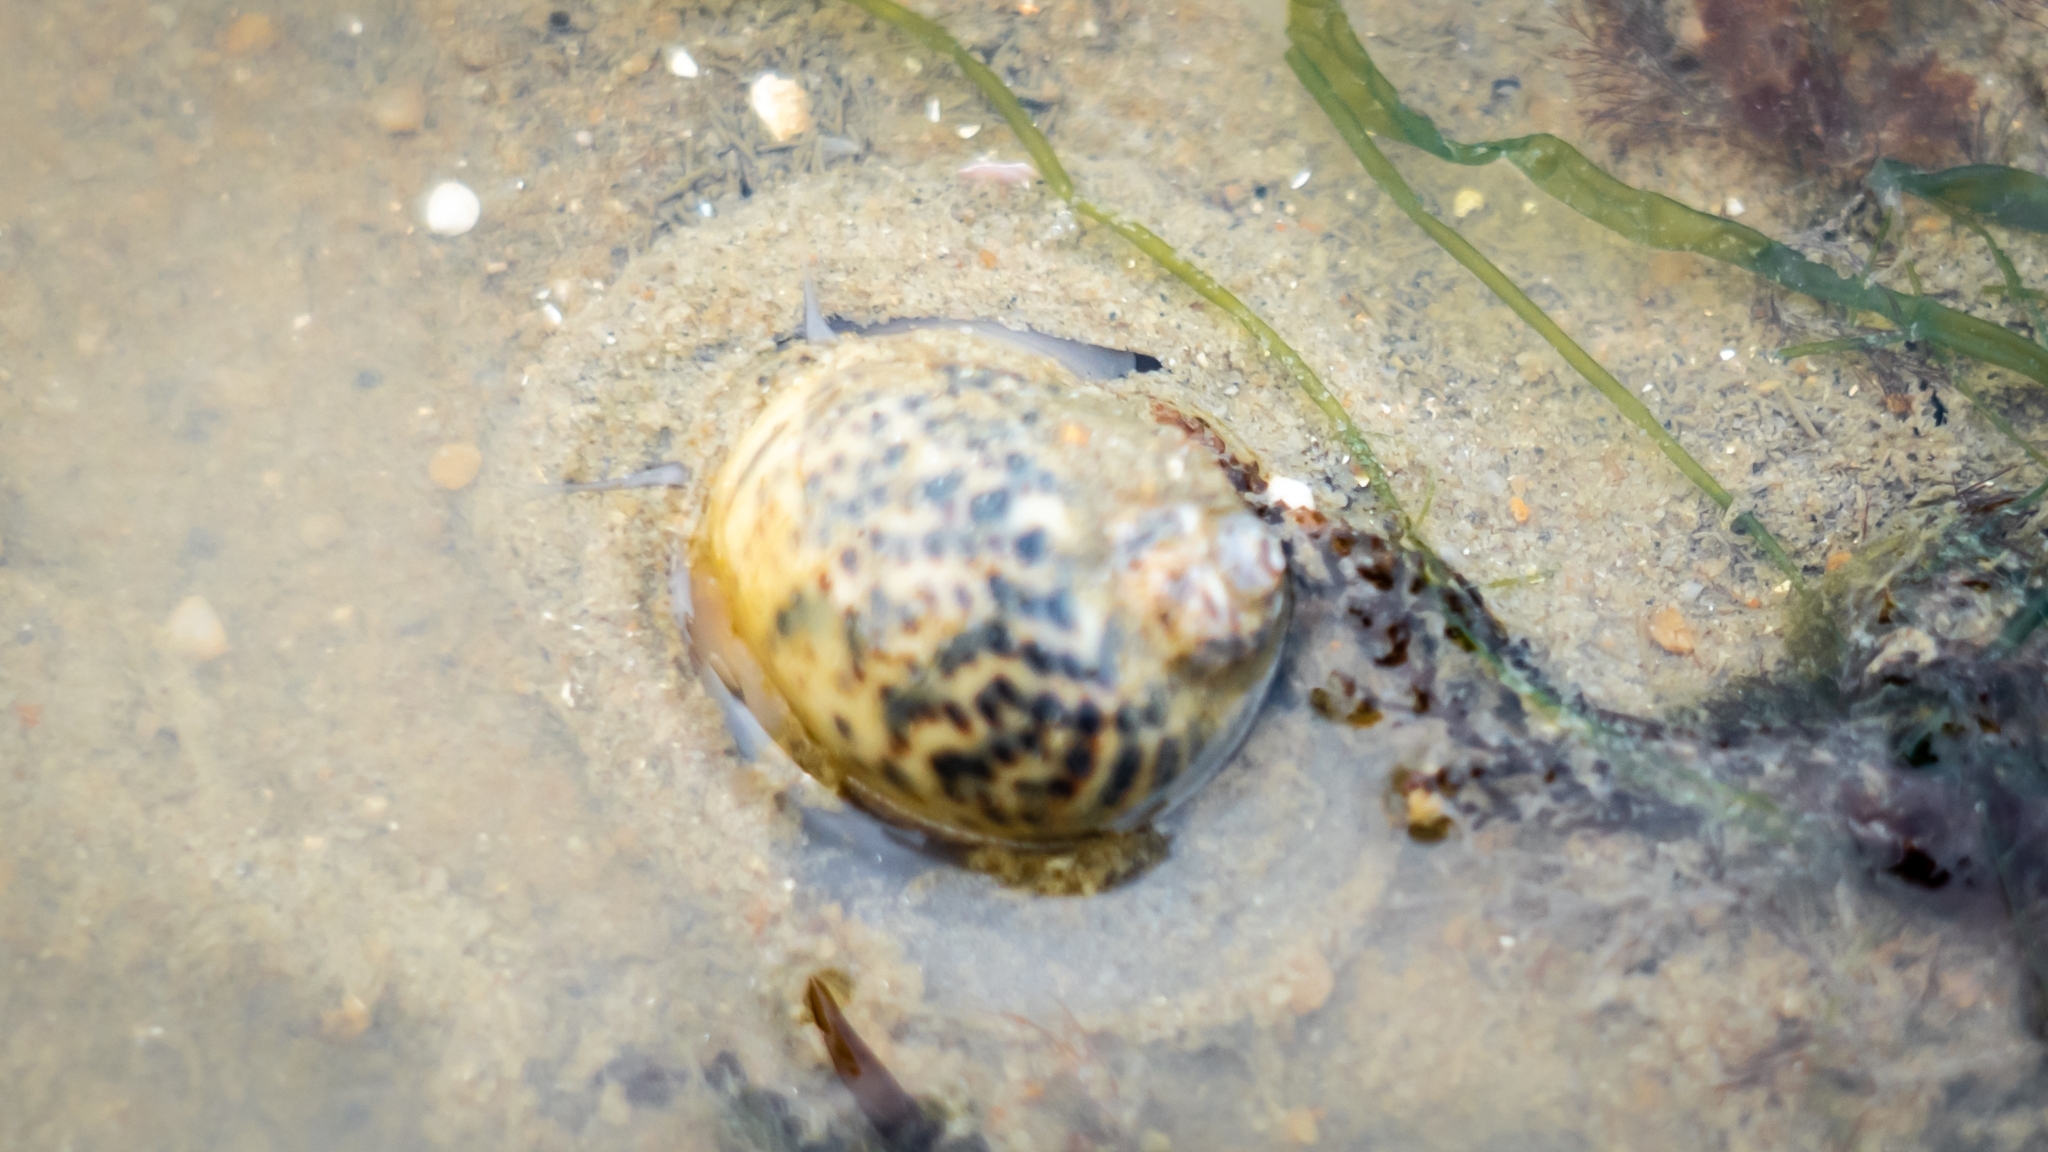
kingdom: Animalia
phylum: Mollusca
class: Gastropoda
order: Littorinimorpha
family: Naticidae
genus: Paratectonatica
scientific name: Paratectonatica tigrina
